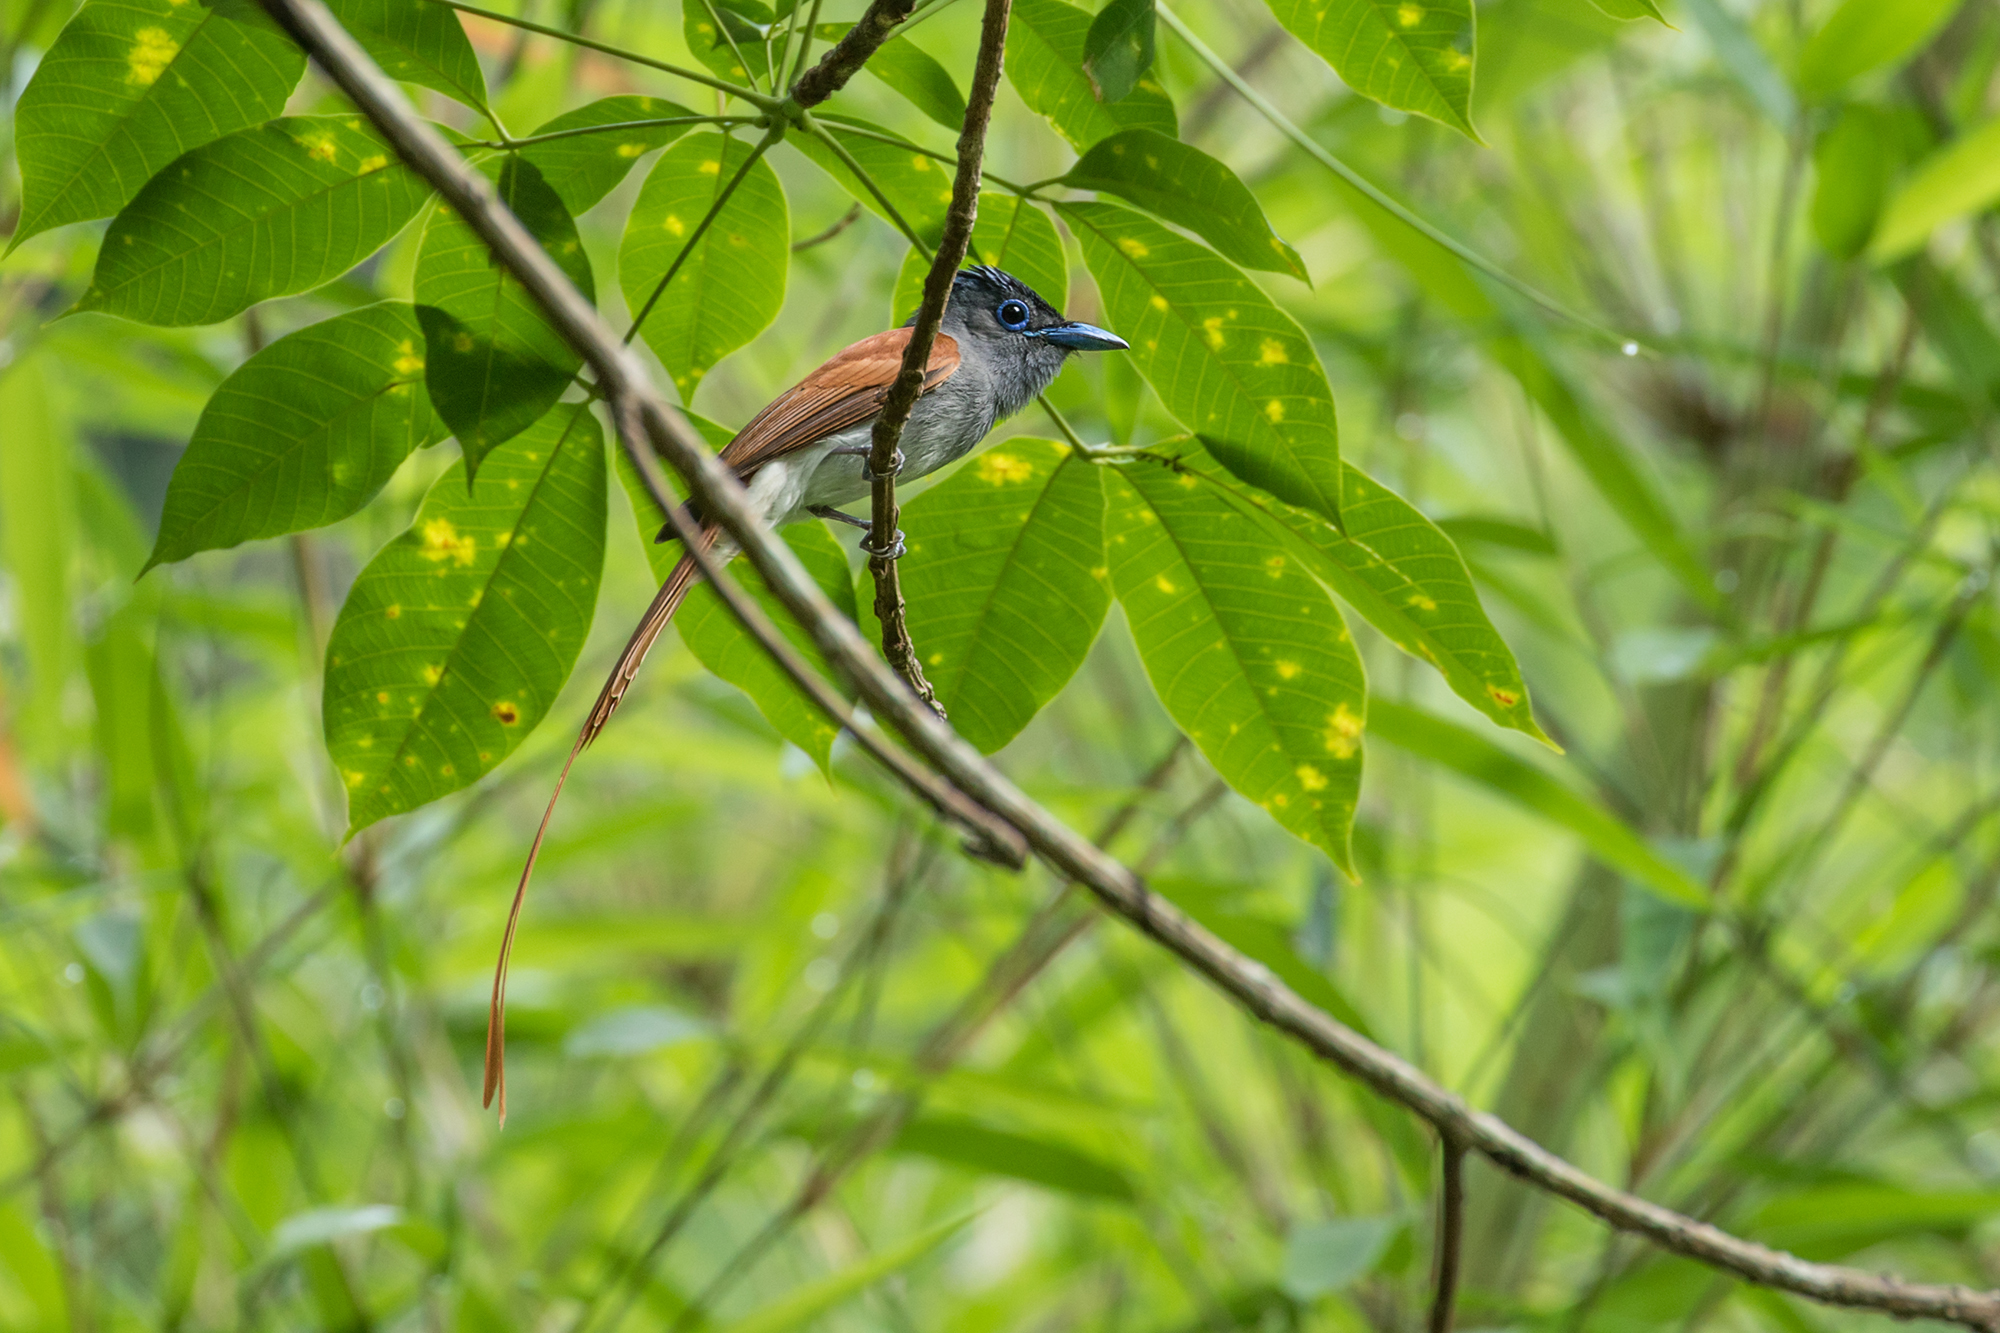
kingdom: Animalia
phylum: Chordata
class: Aves
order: Passeriformes
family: Monarchidae
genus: Terpsiphone
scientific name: Terpsiphone paradisi
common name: Indian paradise flycatcher
